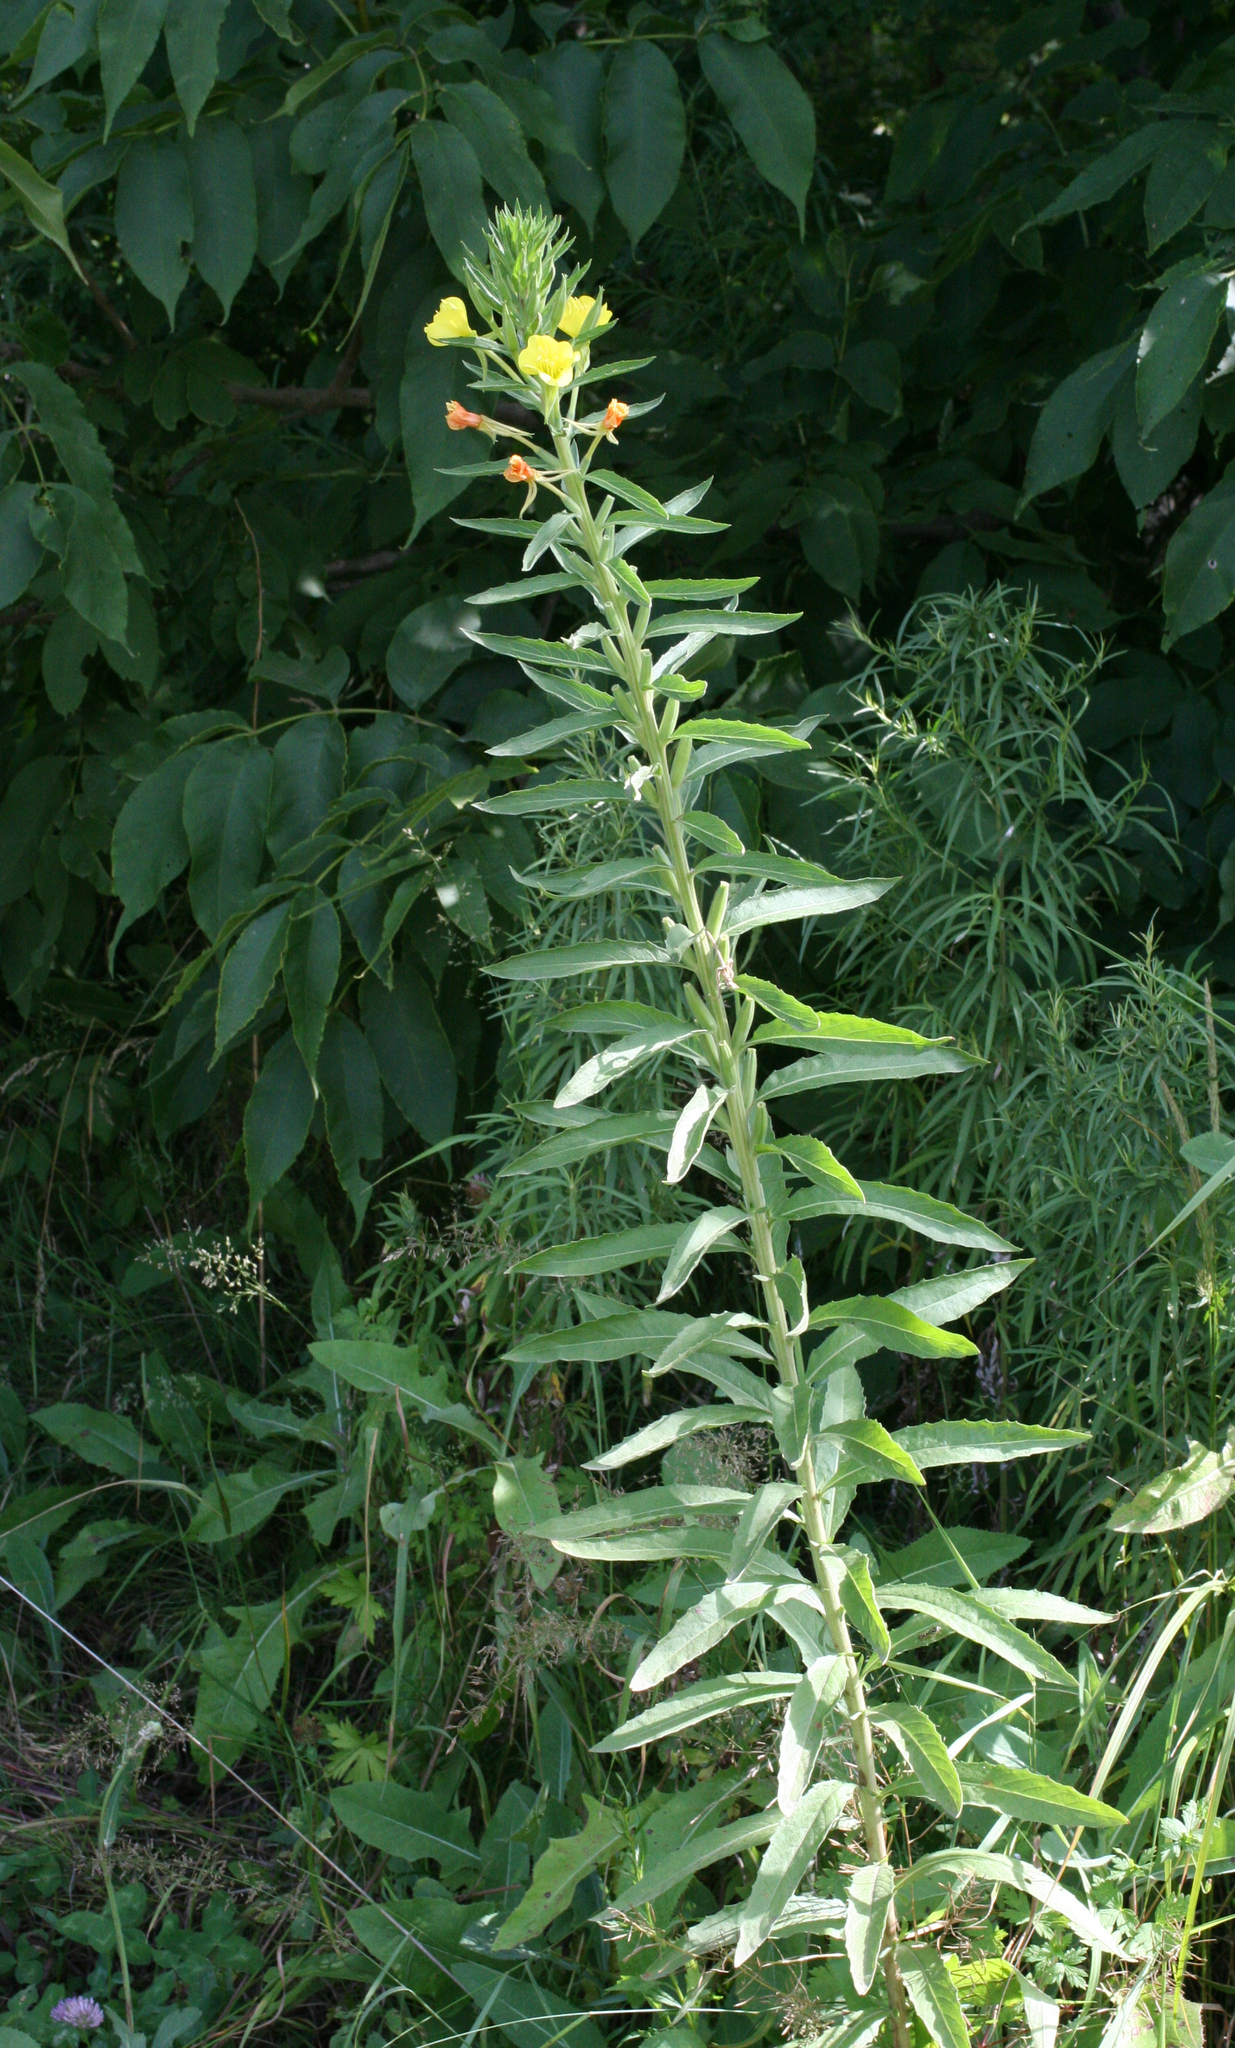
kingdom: Plantae
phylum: Tracheophyta
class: Magnoliopsida
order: Myrtales
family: Onagraceae
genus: Oenothera
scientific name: Oenothera villosa
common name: Hairy evening-primrose
